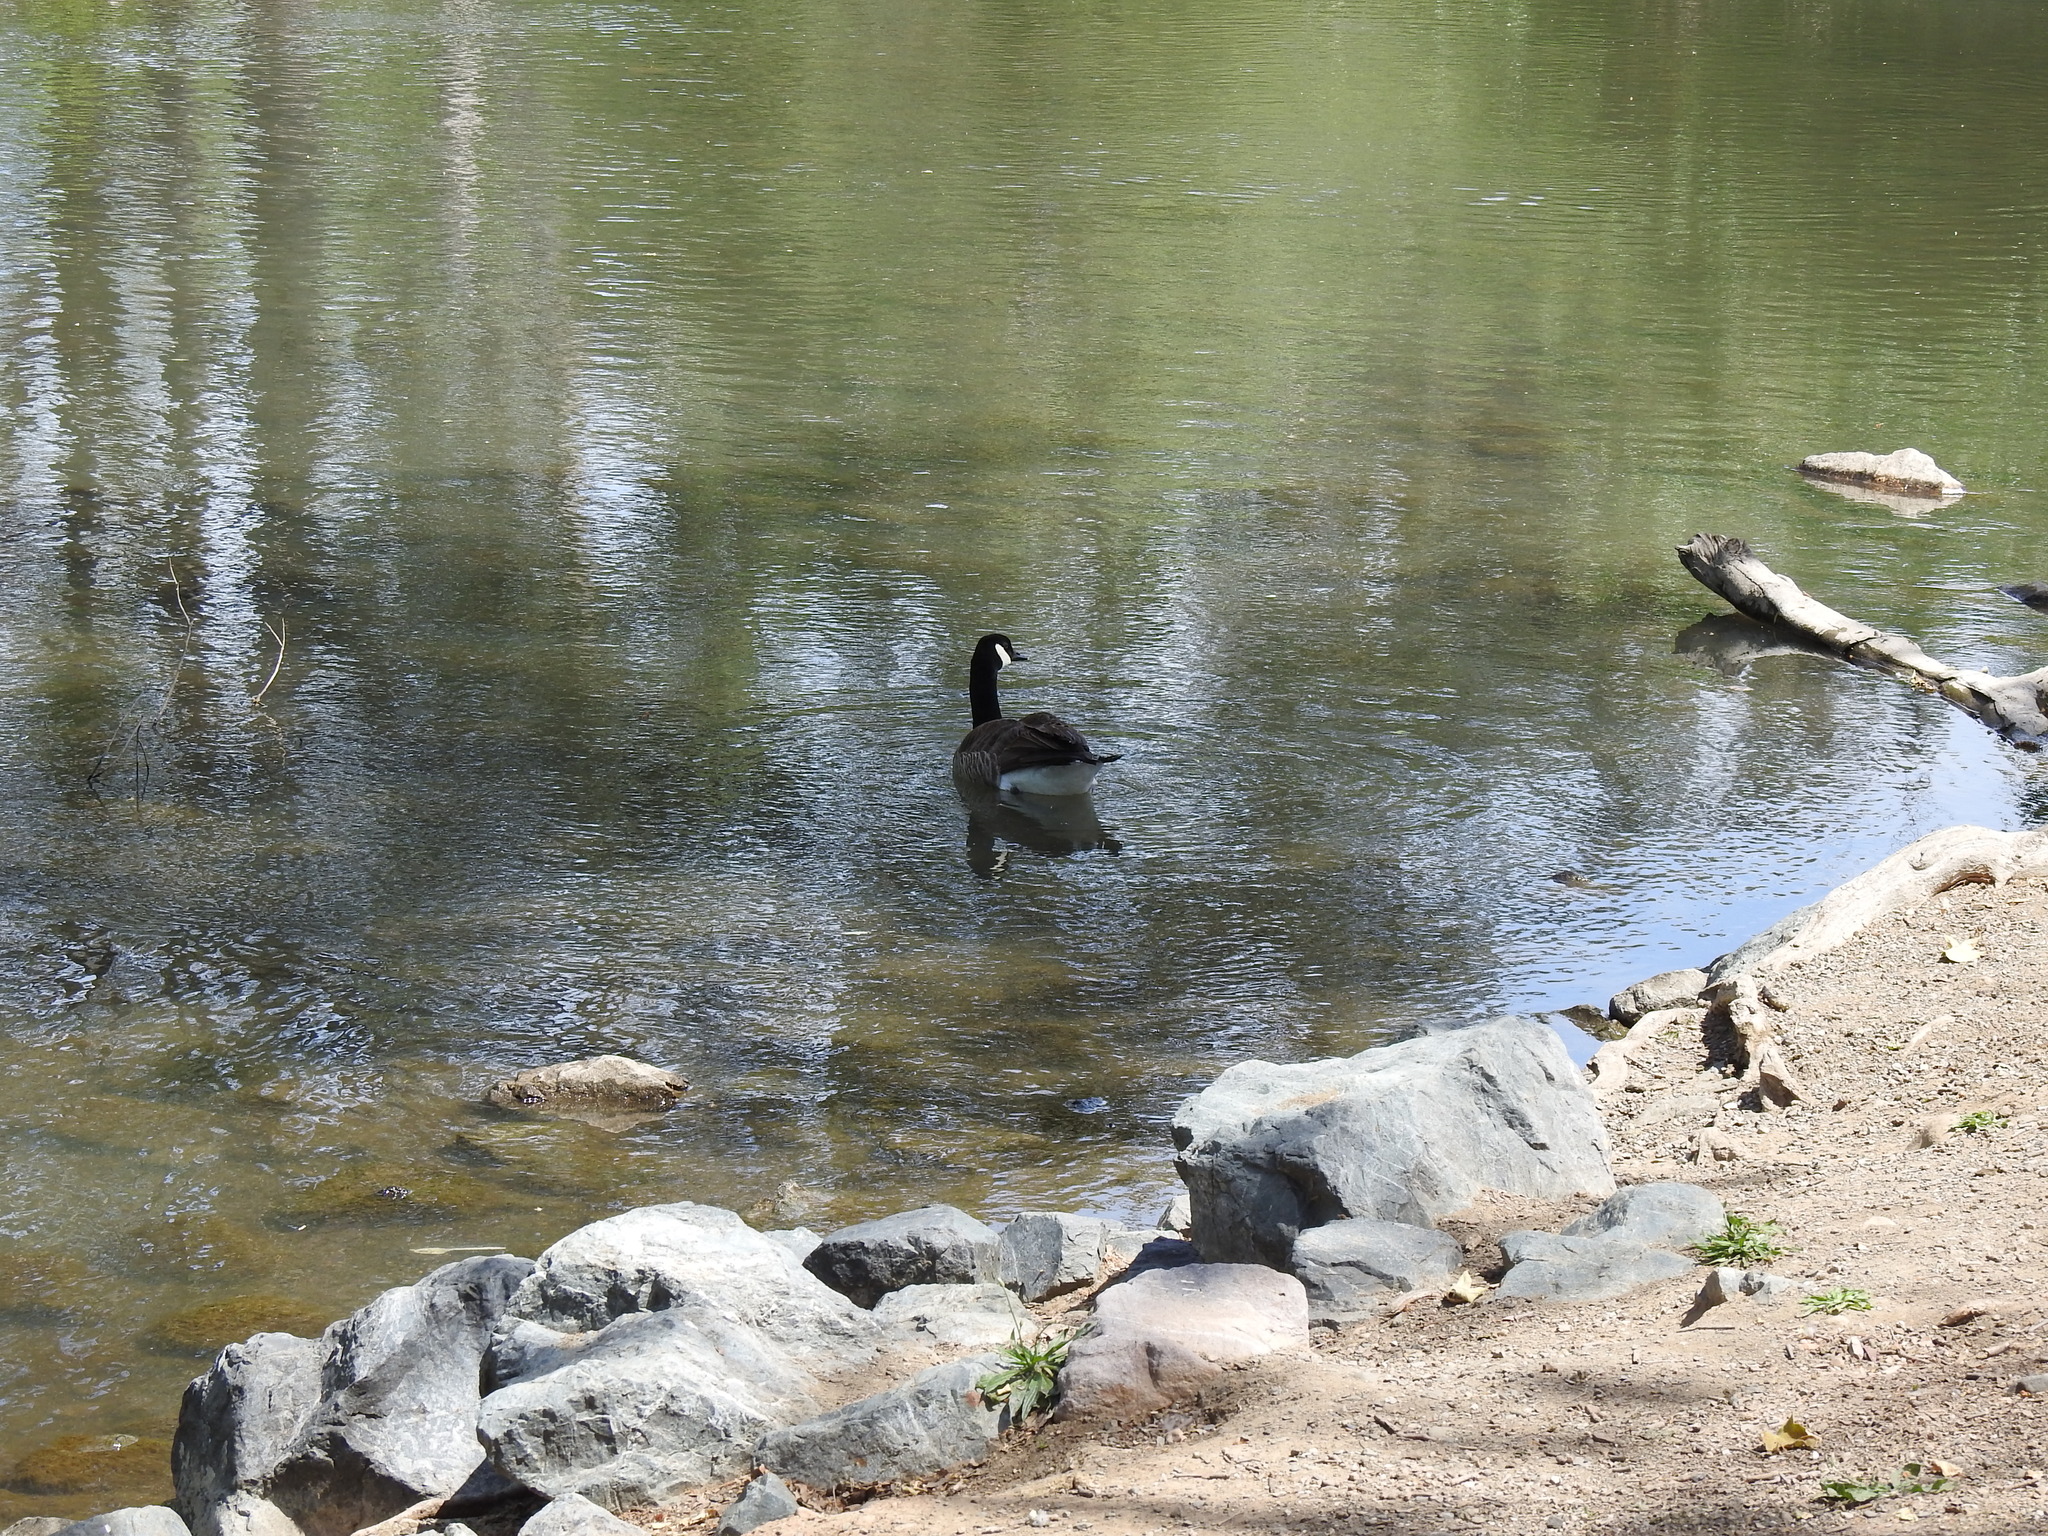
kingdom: Animalia
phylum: Chordata
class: Aves
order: Anseriformes
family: Anatidae
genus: Branta
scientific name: Branta canadensis
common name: Canada goose
